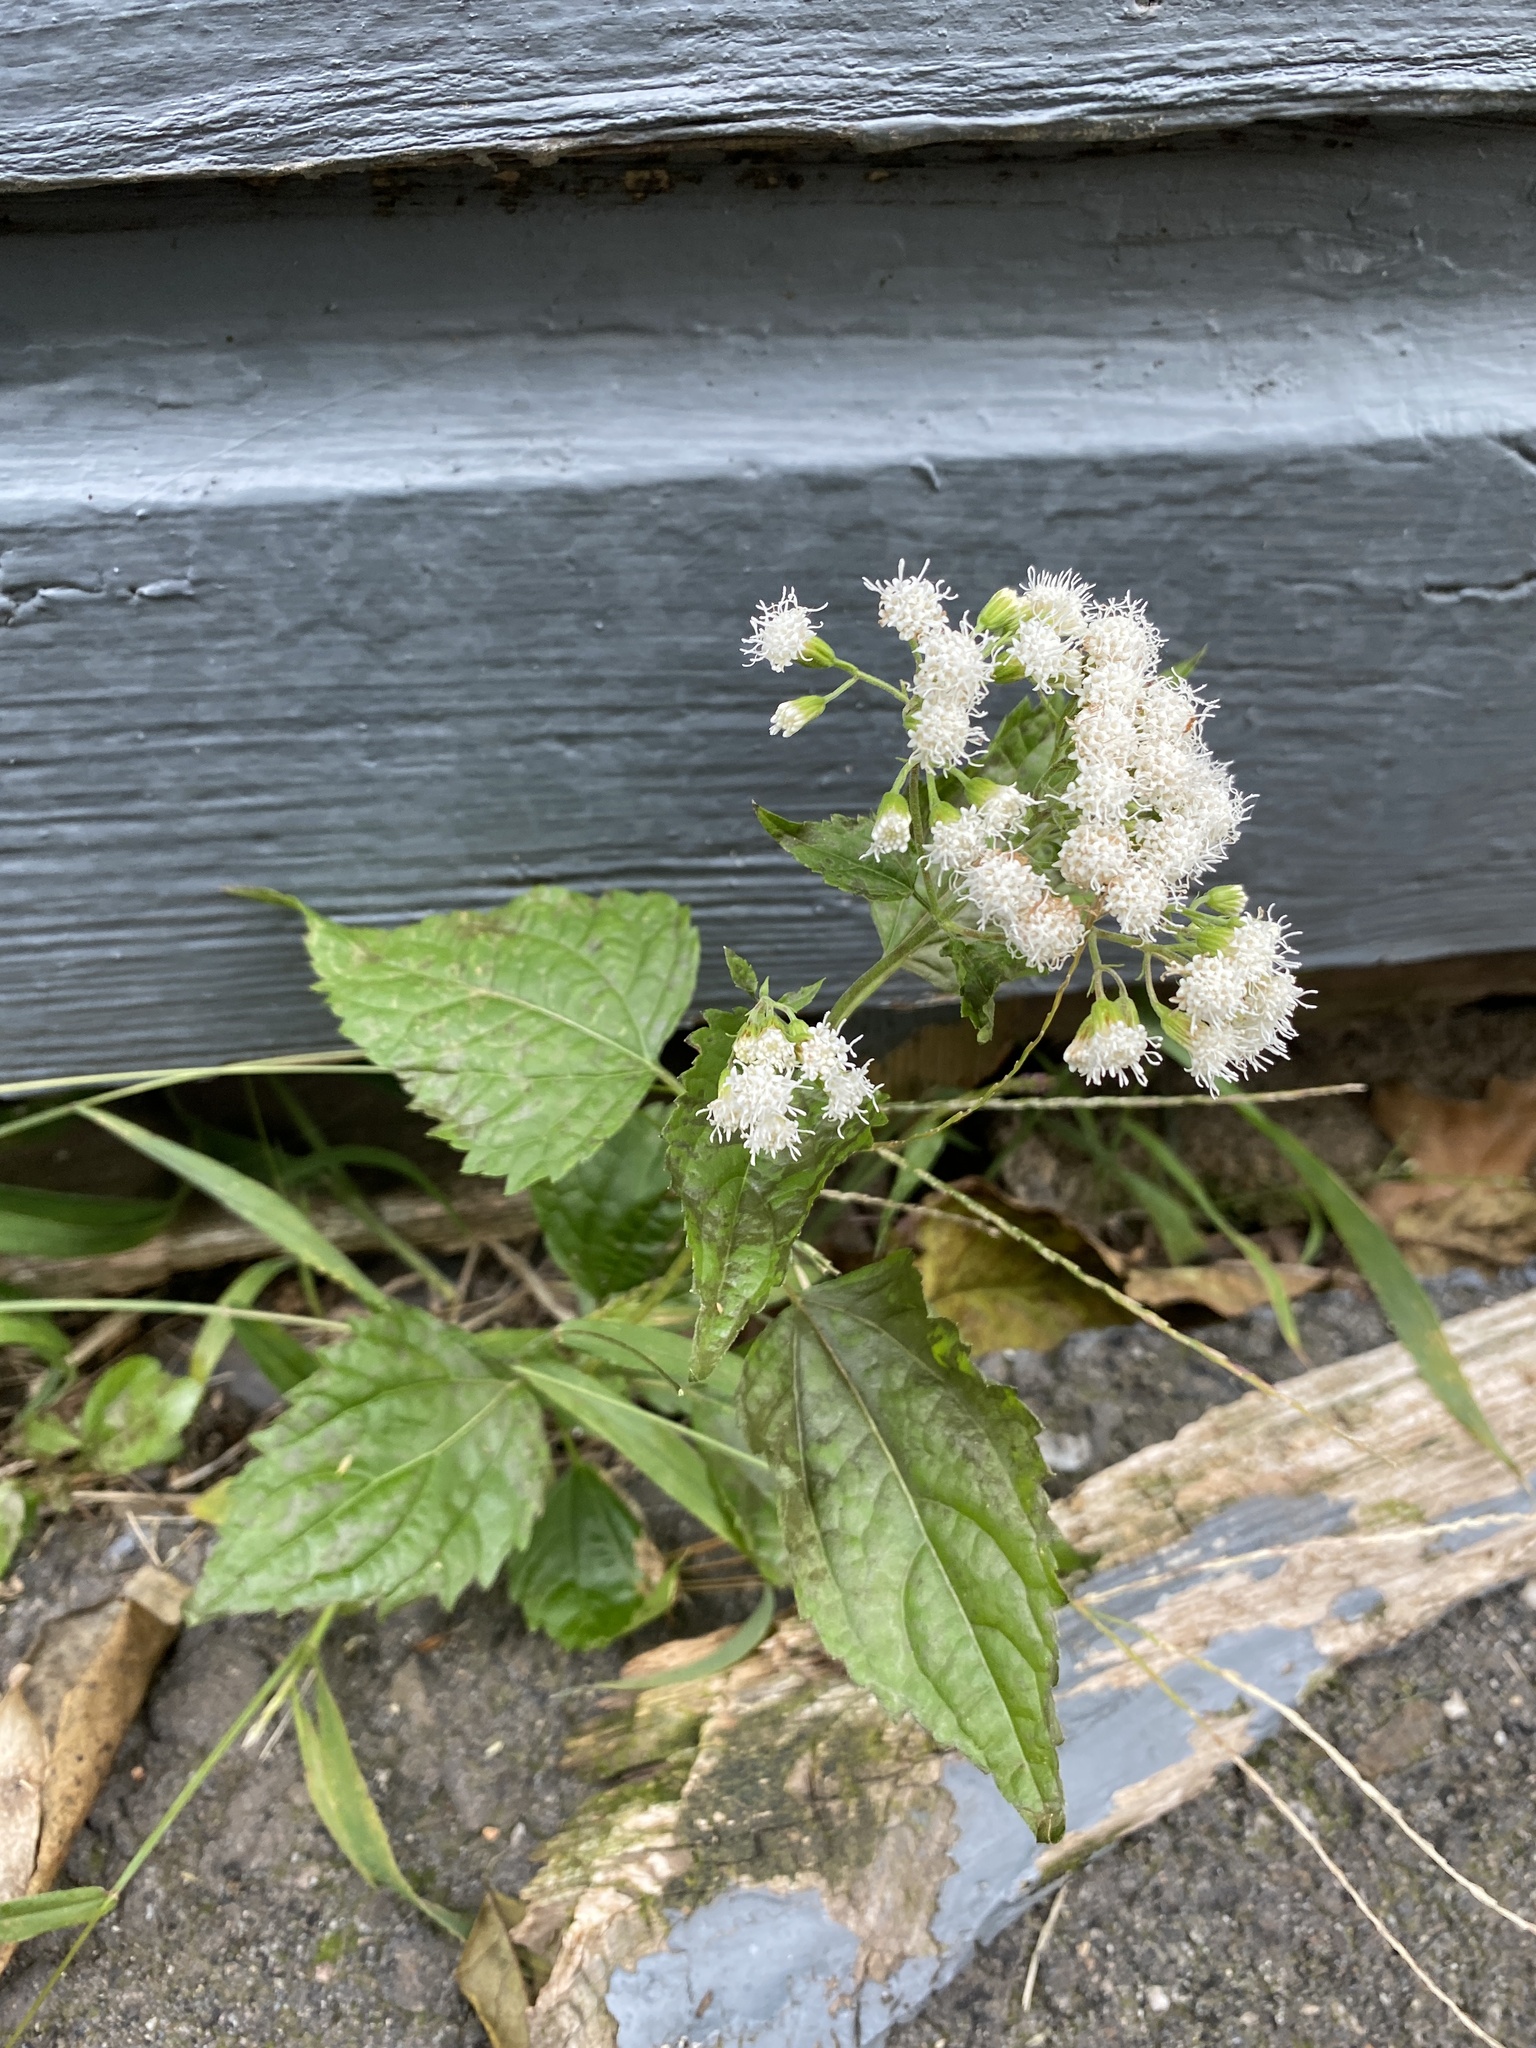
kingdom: Plantae
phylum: Tracheophyta
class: Magnoliopsida
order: Asterales
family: Asteraceae
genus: Ageratina
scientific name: Ageratina altissima
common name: White snakeroot
